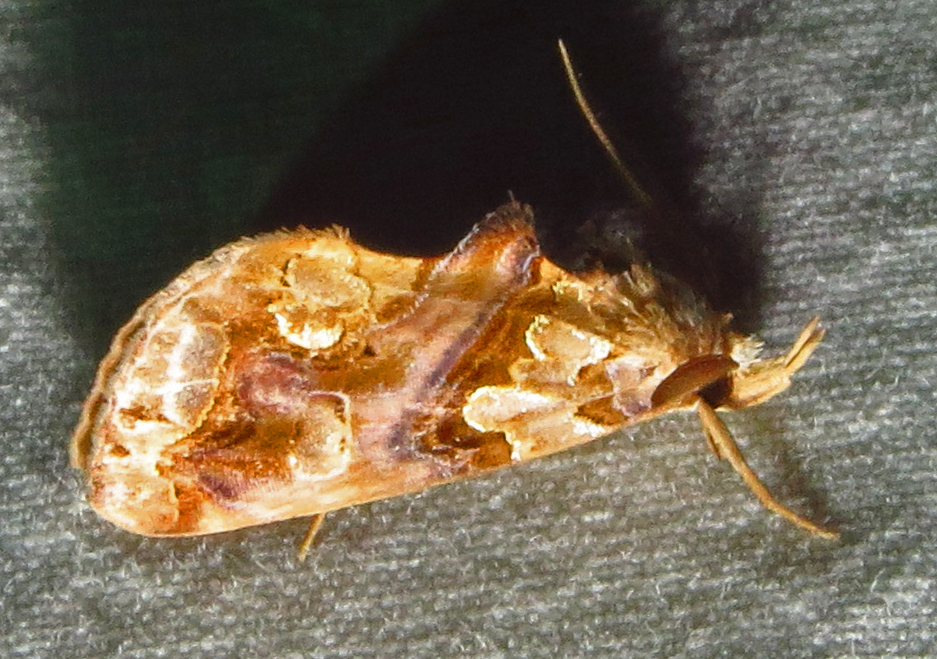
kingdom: Animalia
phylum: Arthropoda
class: Insecta
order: Lepidoptera
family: Erebidae
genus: Plusiodonta
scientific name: Plusiodonta compressipalpis
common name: Moonseed moth
